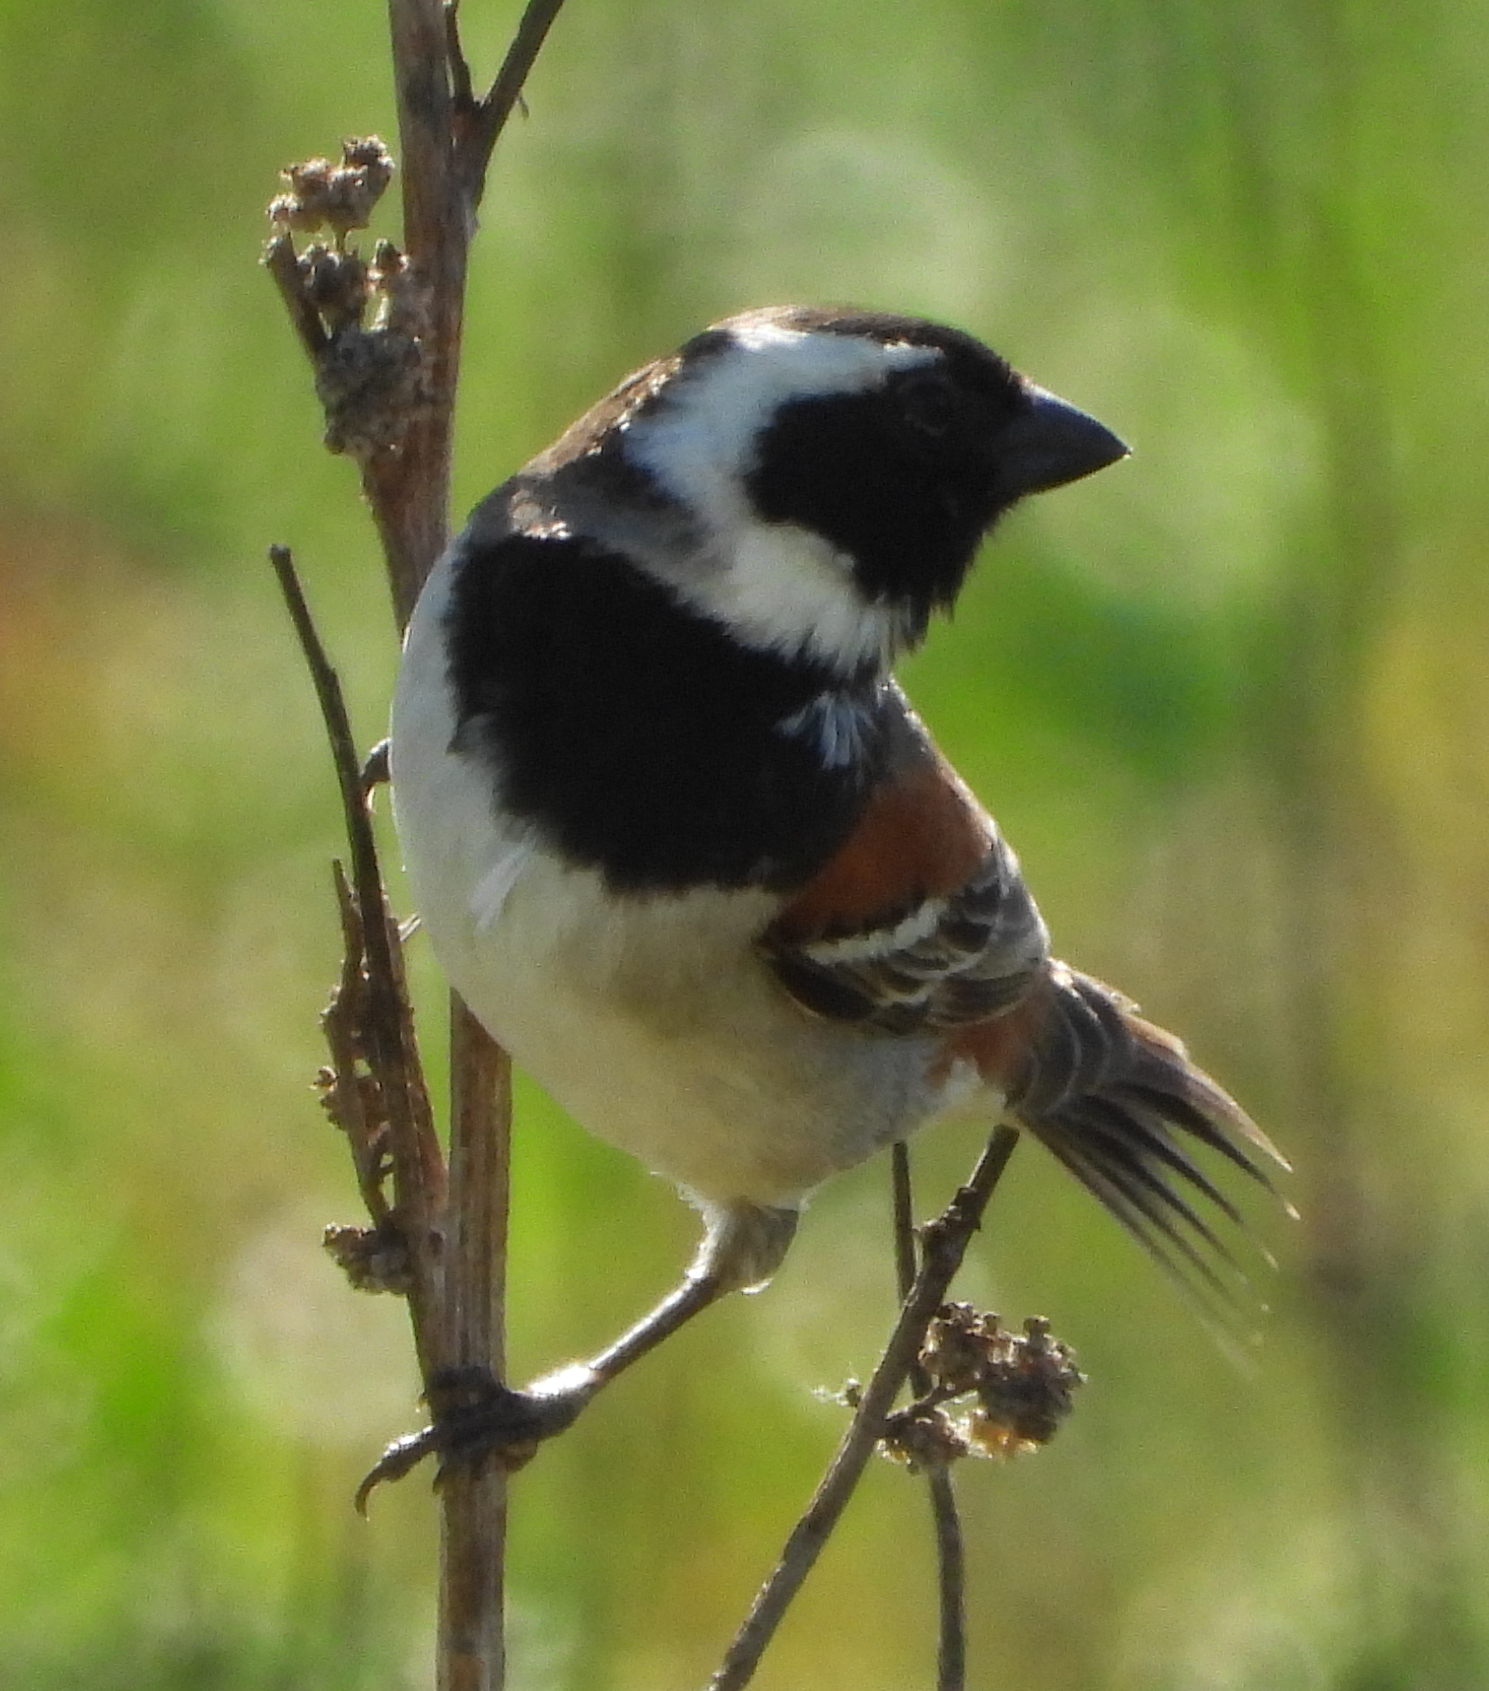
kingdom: Animalia
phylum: Chordata
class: Aves
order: Passeriformes
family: Passeridae
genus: Passer
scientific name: Passer melanurus
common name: Cape sparrow
